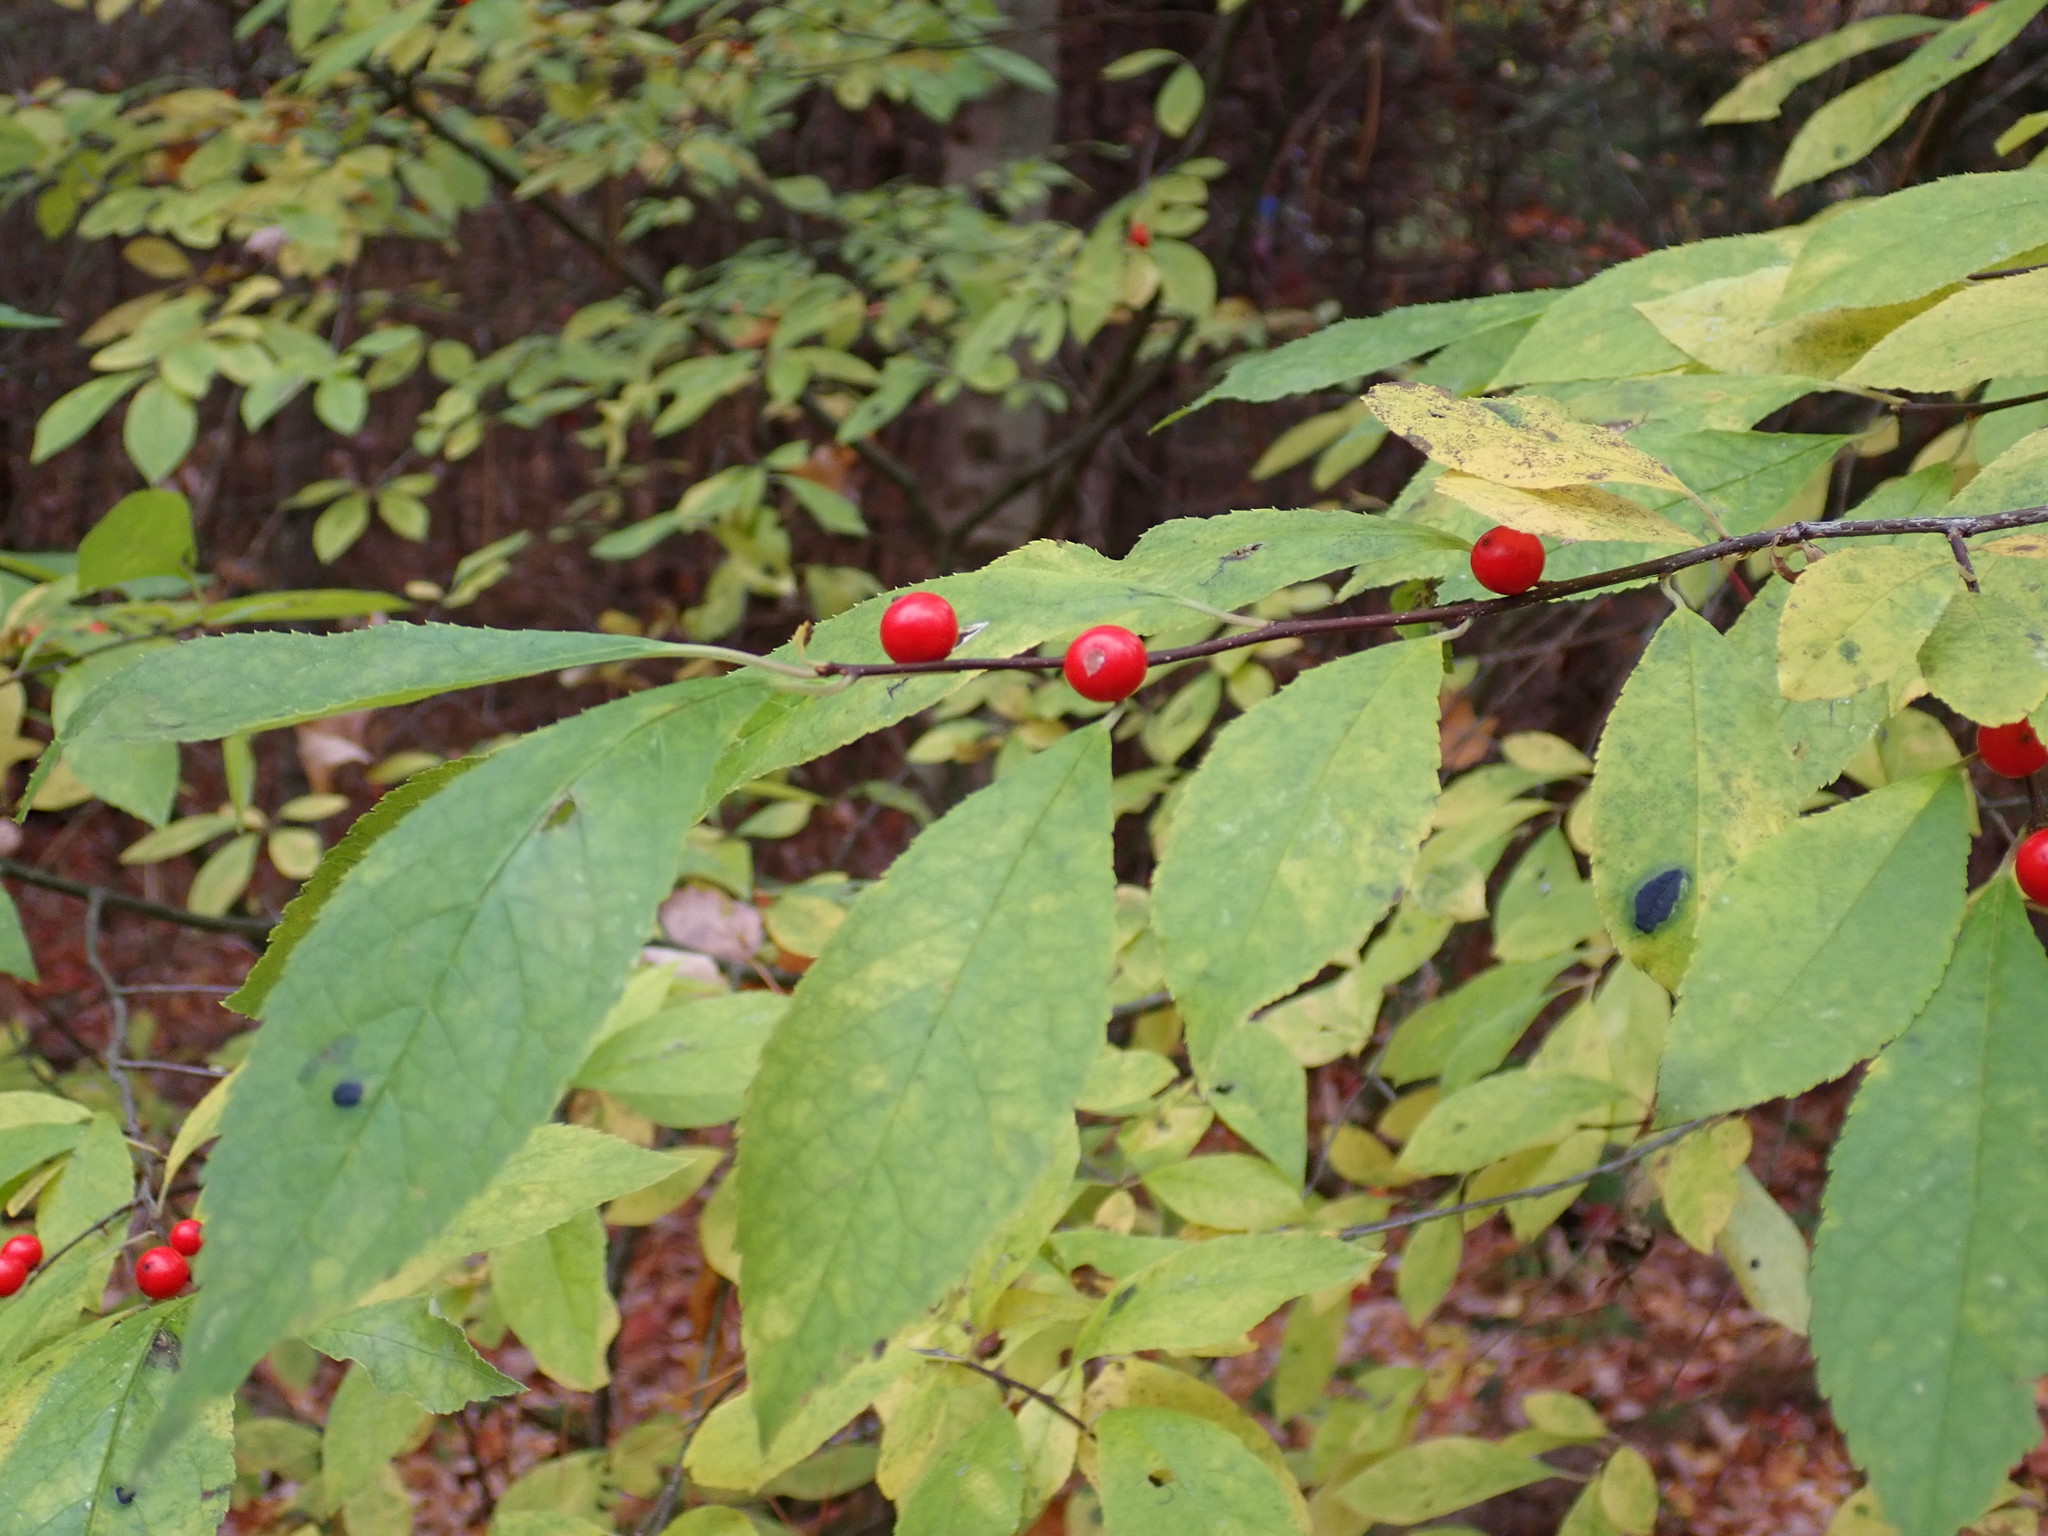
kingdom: Plantae
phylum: Tracheophyta
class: Magnoliopsida
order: Aquifoliales
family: Aquifoliaceae
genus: Ilex
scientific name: Ilex verticillata
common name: Virginia winterberry
